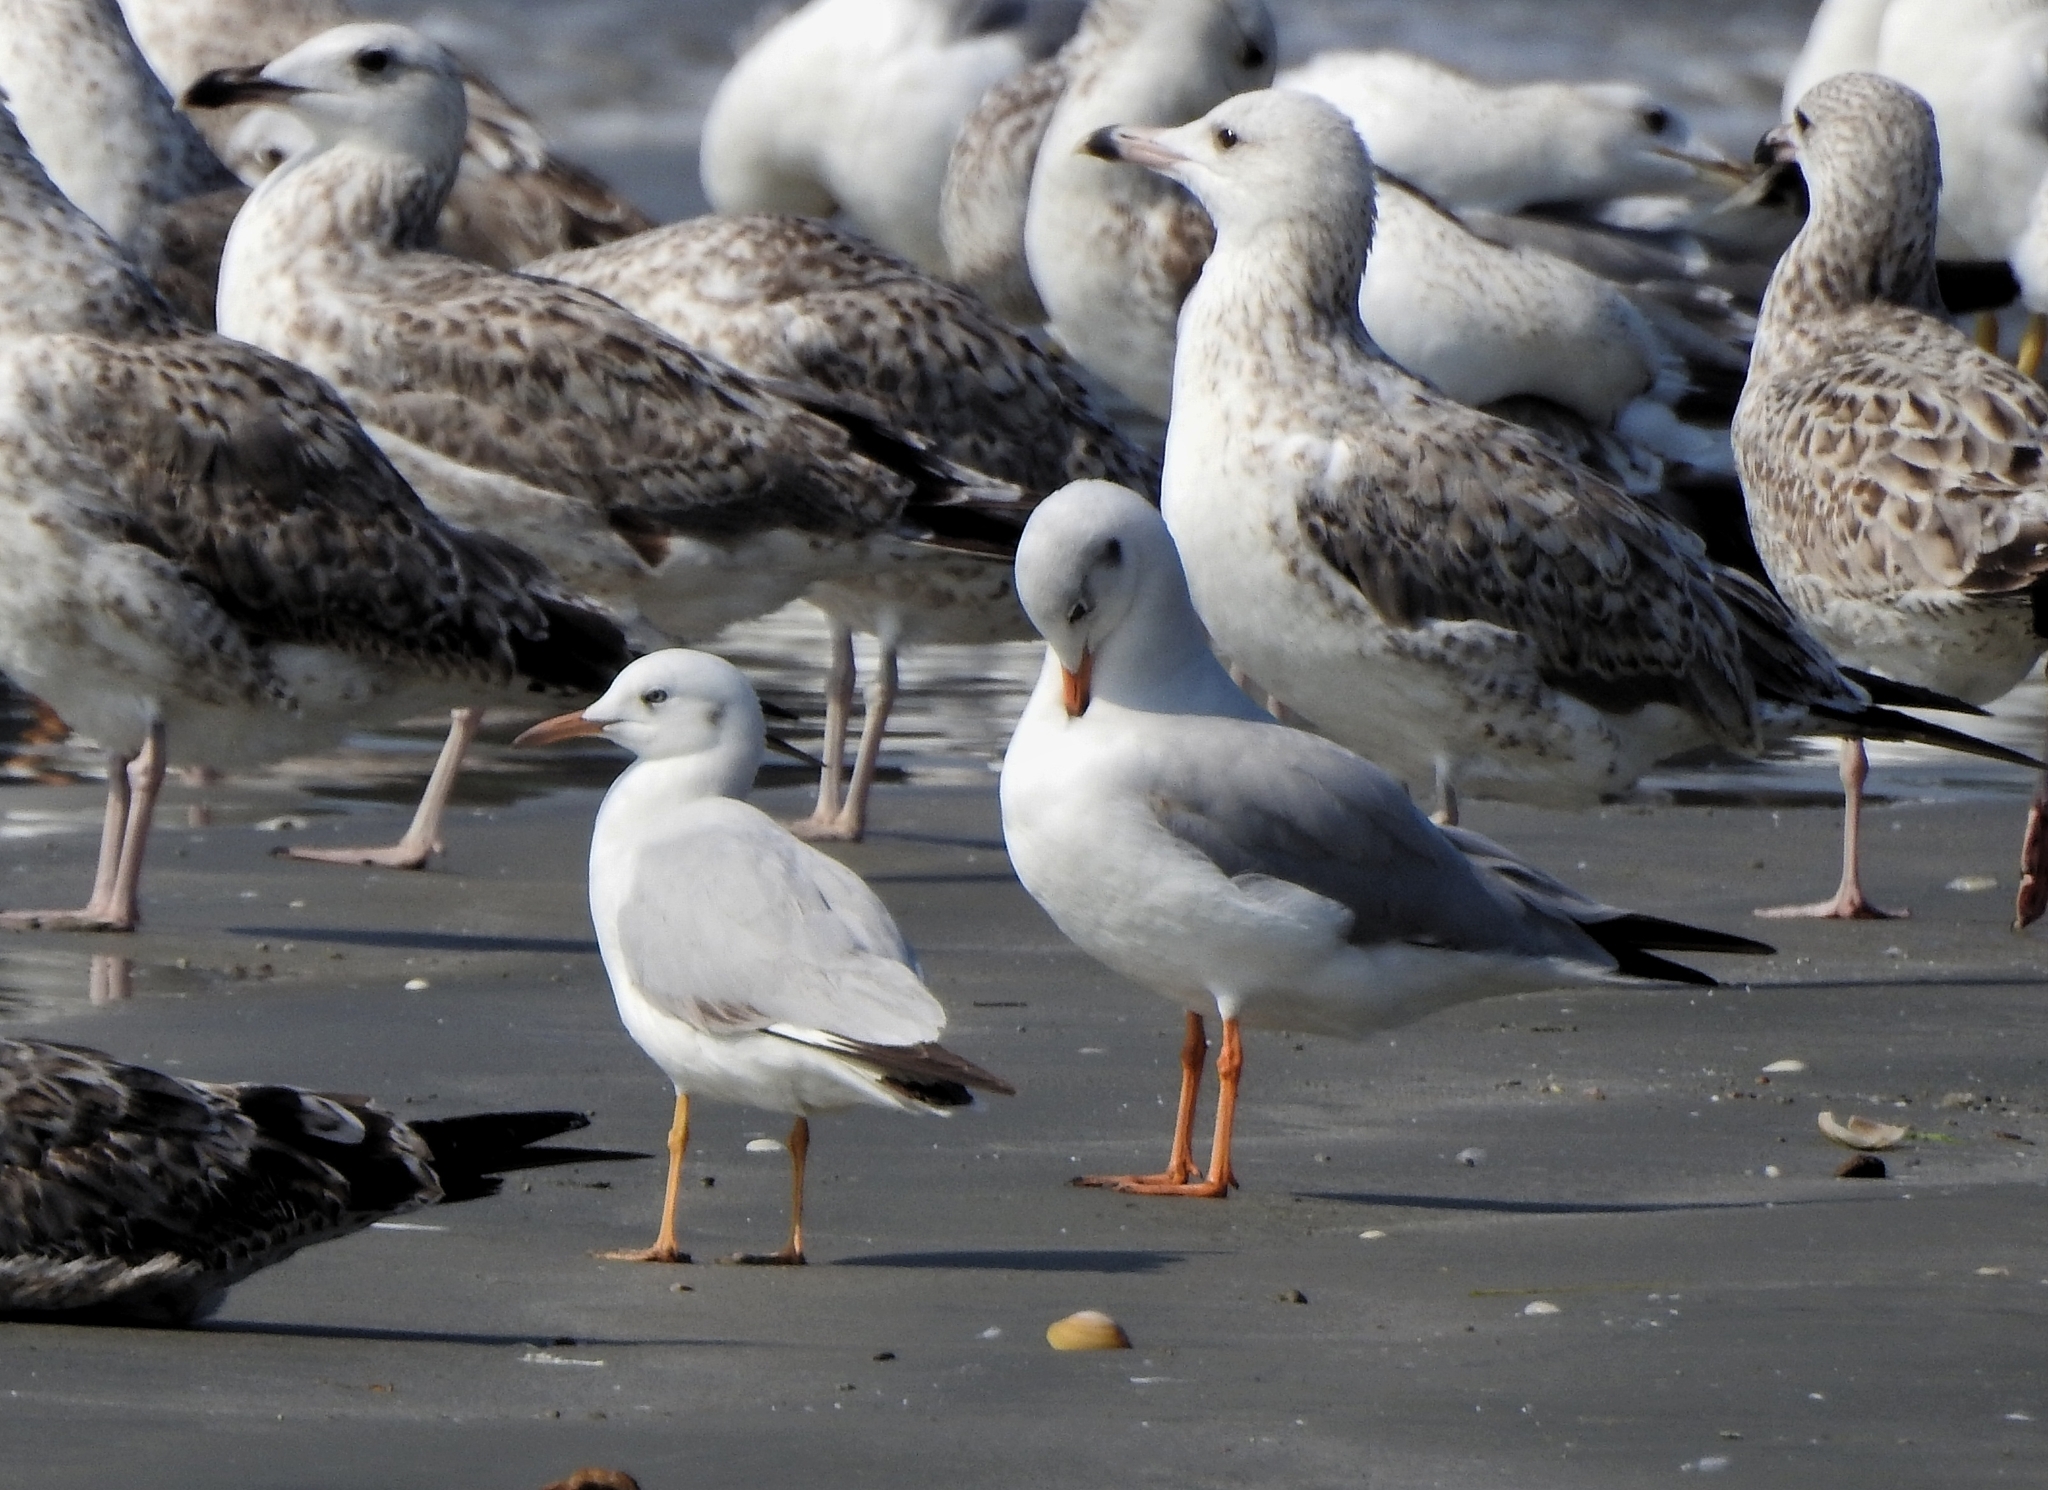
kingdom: Animalia
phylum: Chordata
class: Aves
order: Charadriiformes
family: Laridae
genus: Chroicocephalus
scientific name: Chroicocephalus genei
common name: Slender-billed gull
